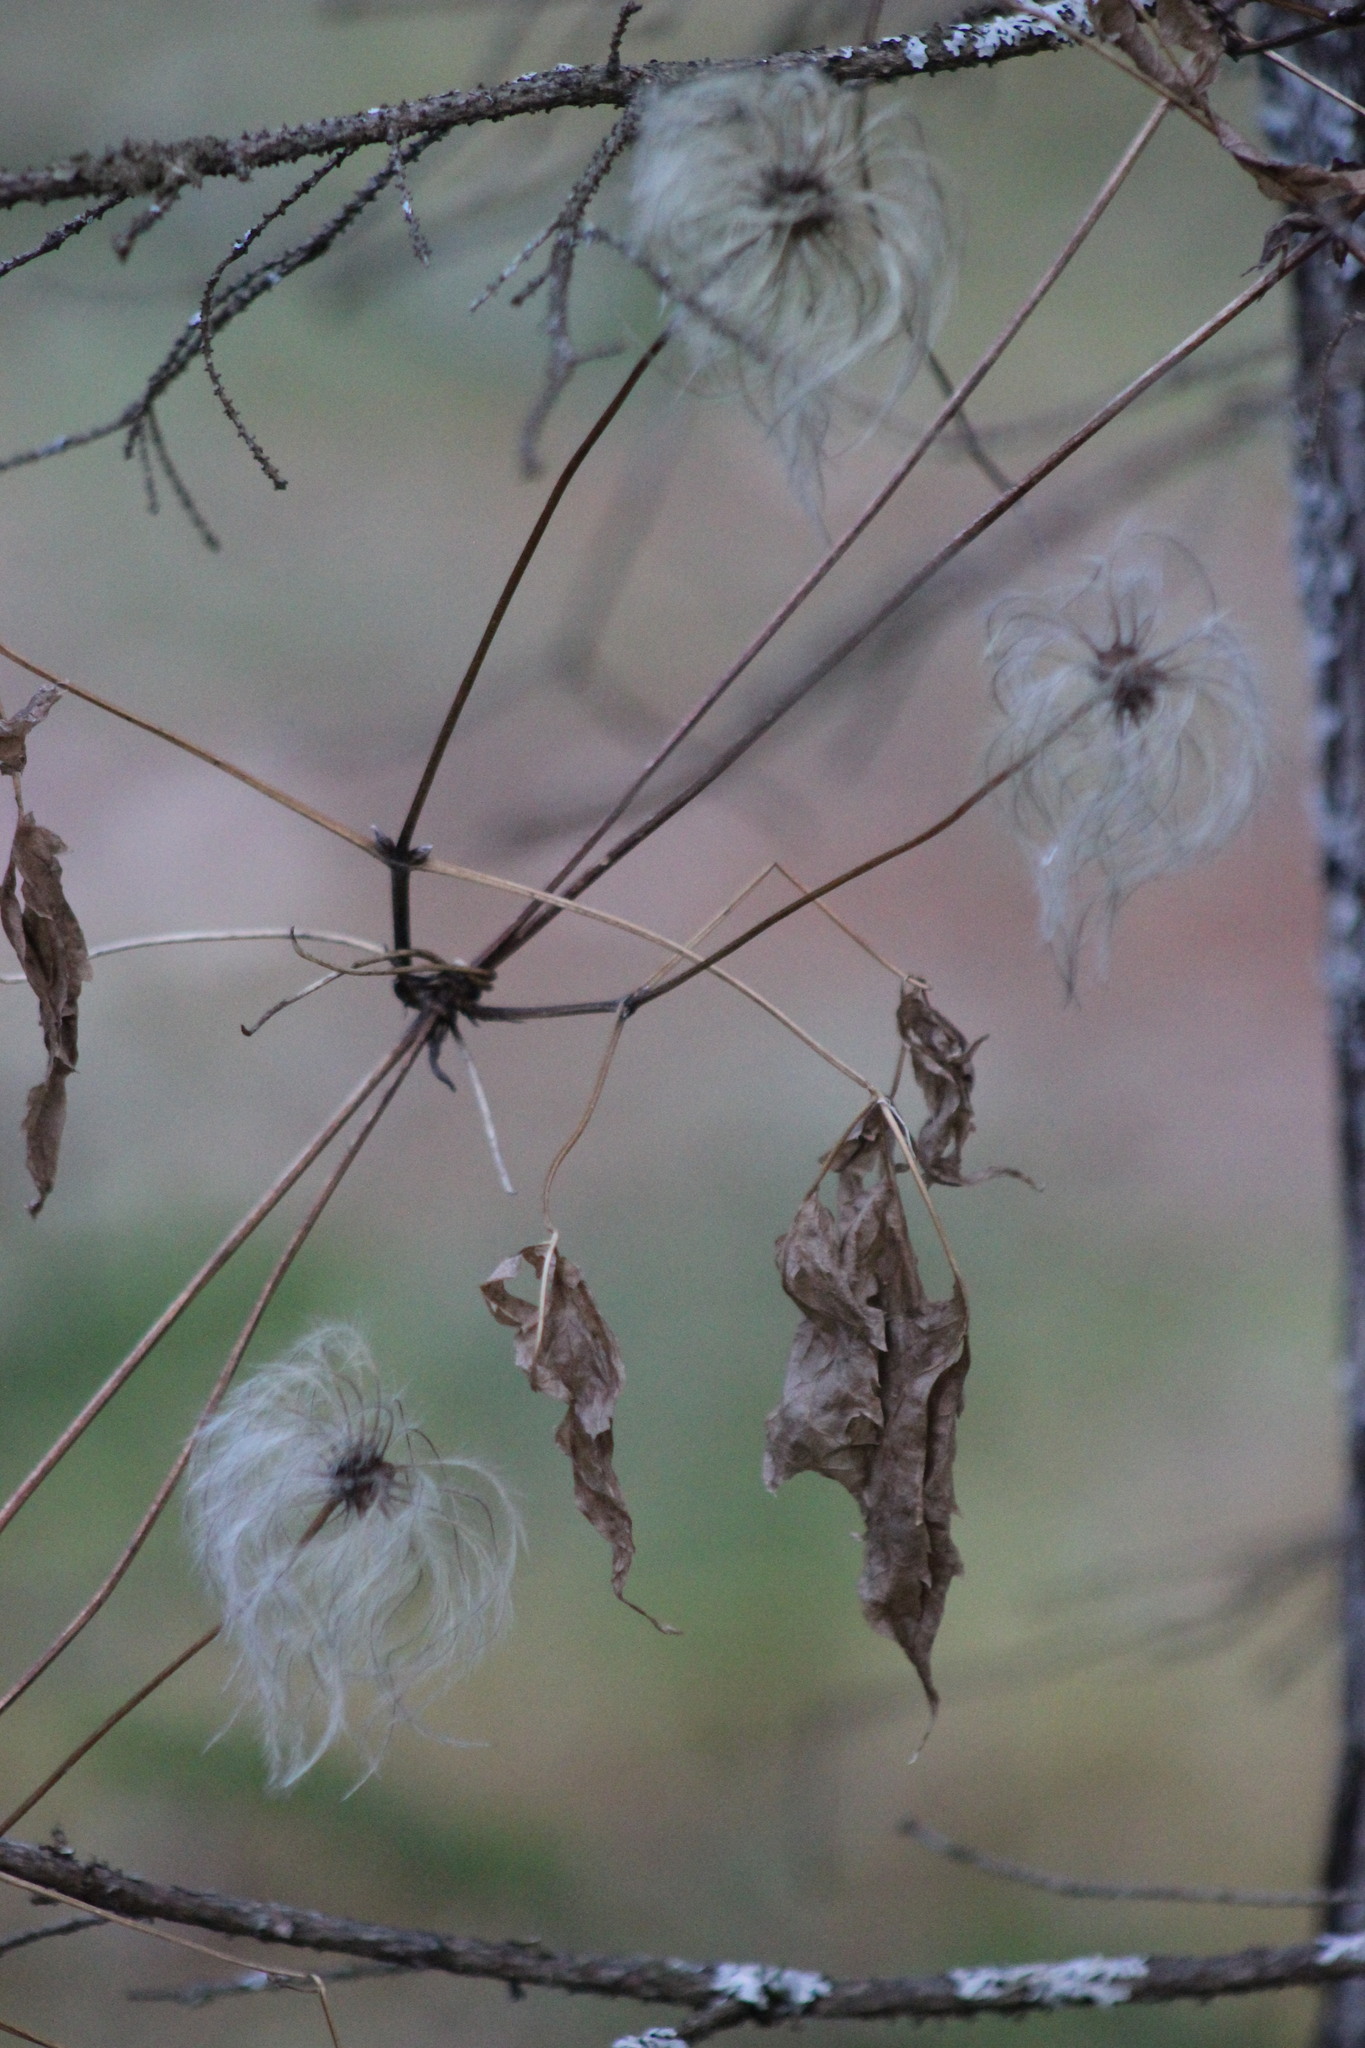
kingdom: Plantae
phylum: Tracheophyta
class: Magnoliopsida
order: Ranunculales
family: Ranunculaceae
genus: Clematis
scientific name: Clematis sibirica
